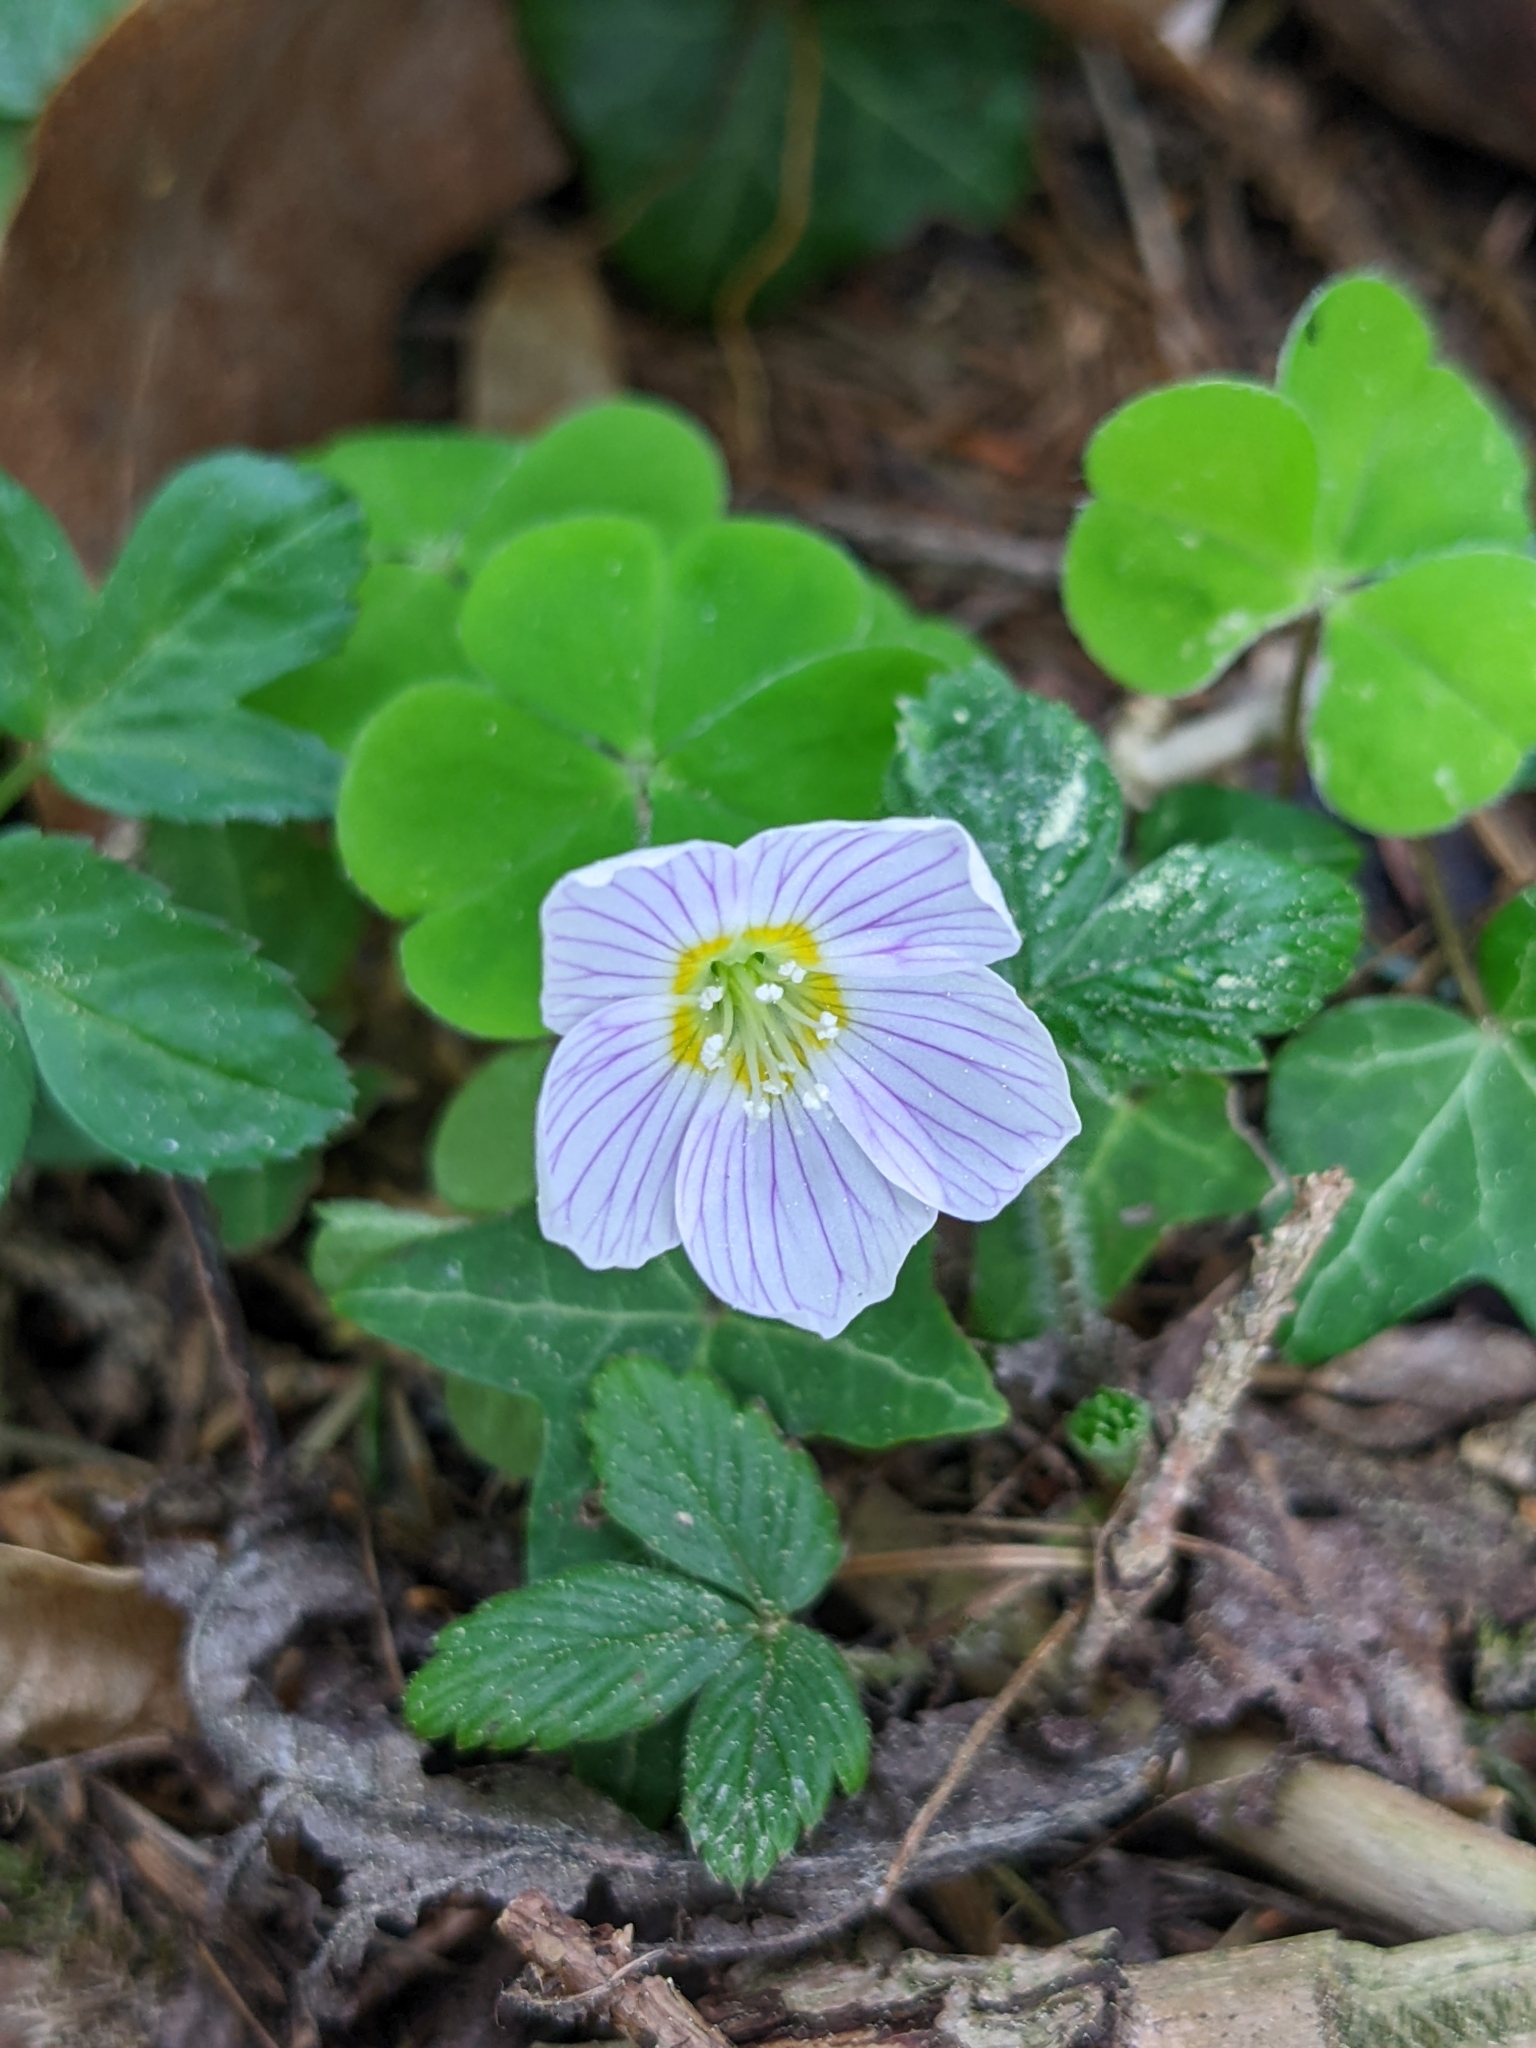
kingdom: Plantae
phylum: Tracheophyta
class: Magnoliopsida
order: Oxalidales
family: Oxalidaceae
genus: Oxalis
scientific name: Oxalis acetosella
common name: Wood-sorrel
